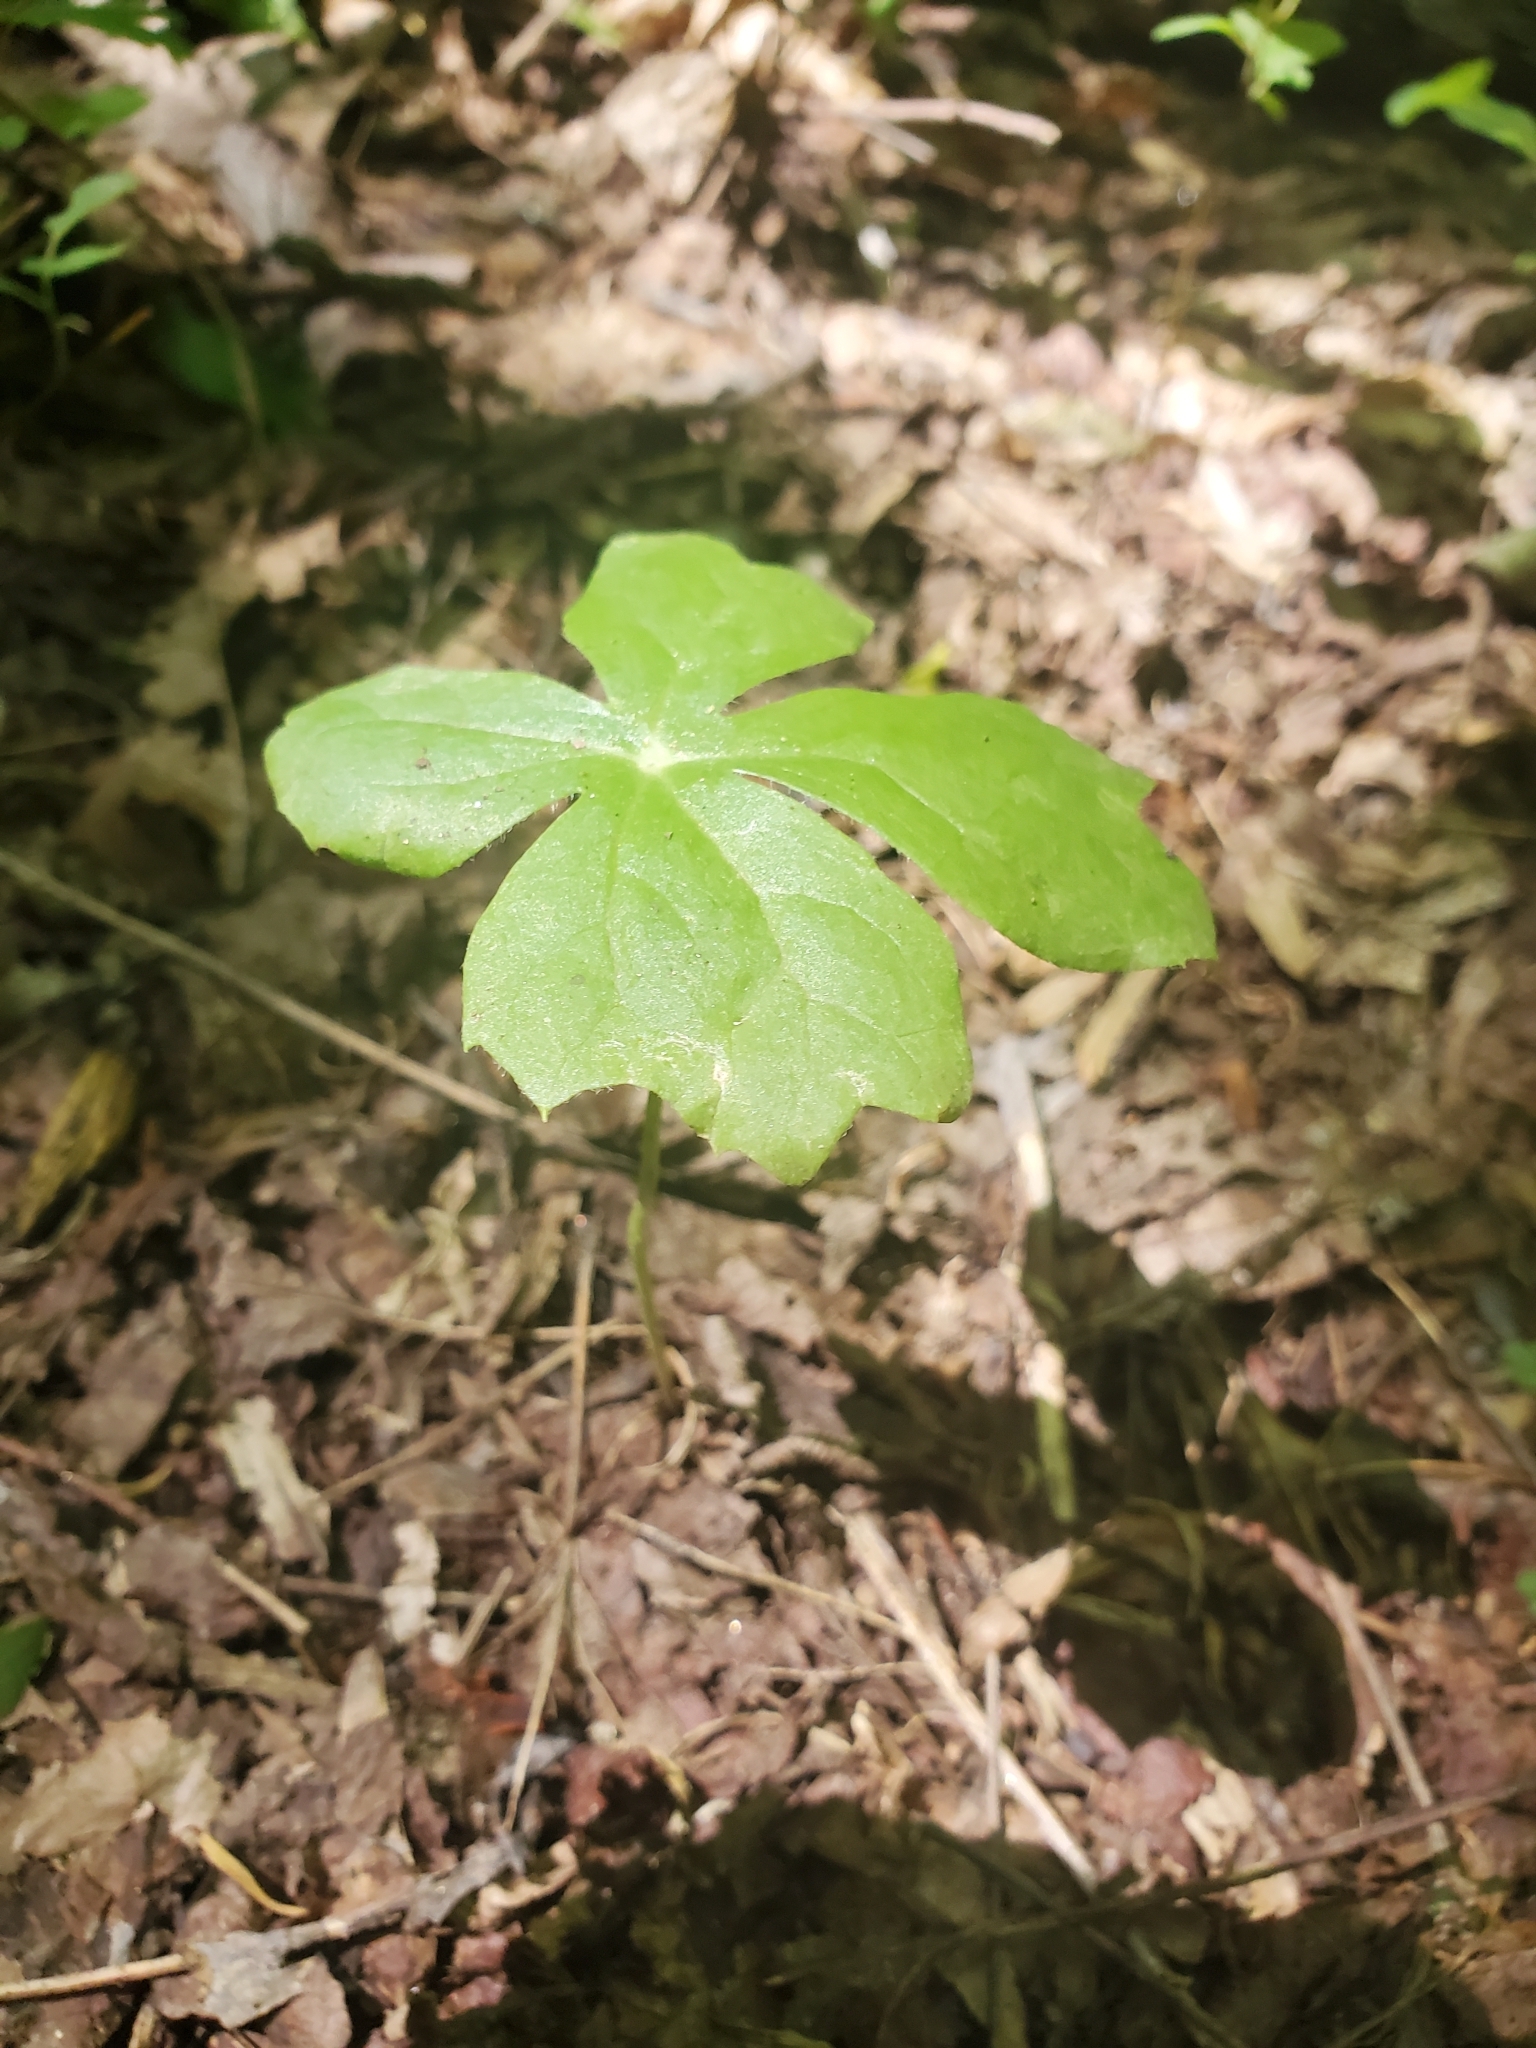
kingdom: Plantae
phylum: Tracheophyta
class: Magnoliopsida
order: Ranunculales
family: Berberidaceae
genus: Podophyllum
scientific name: Podophyllum peltatum
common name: Wild mandrake
